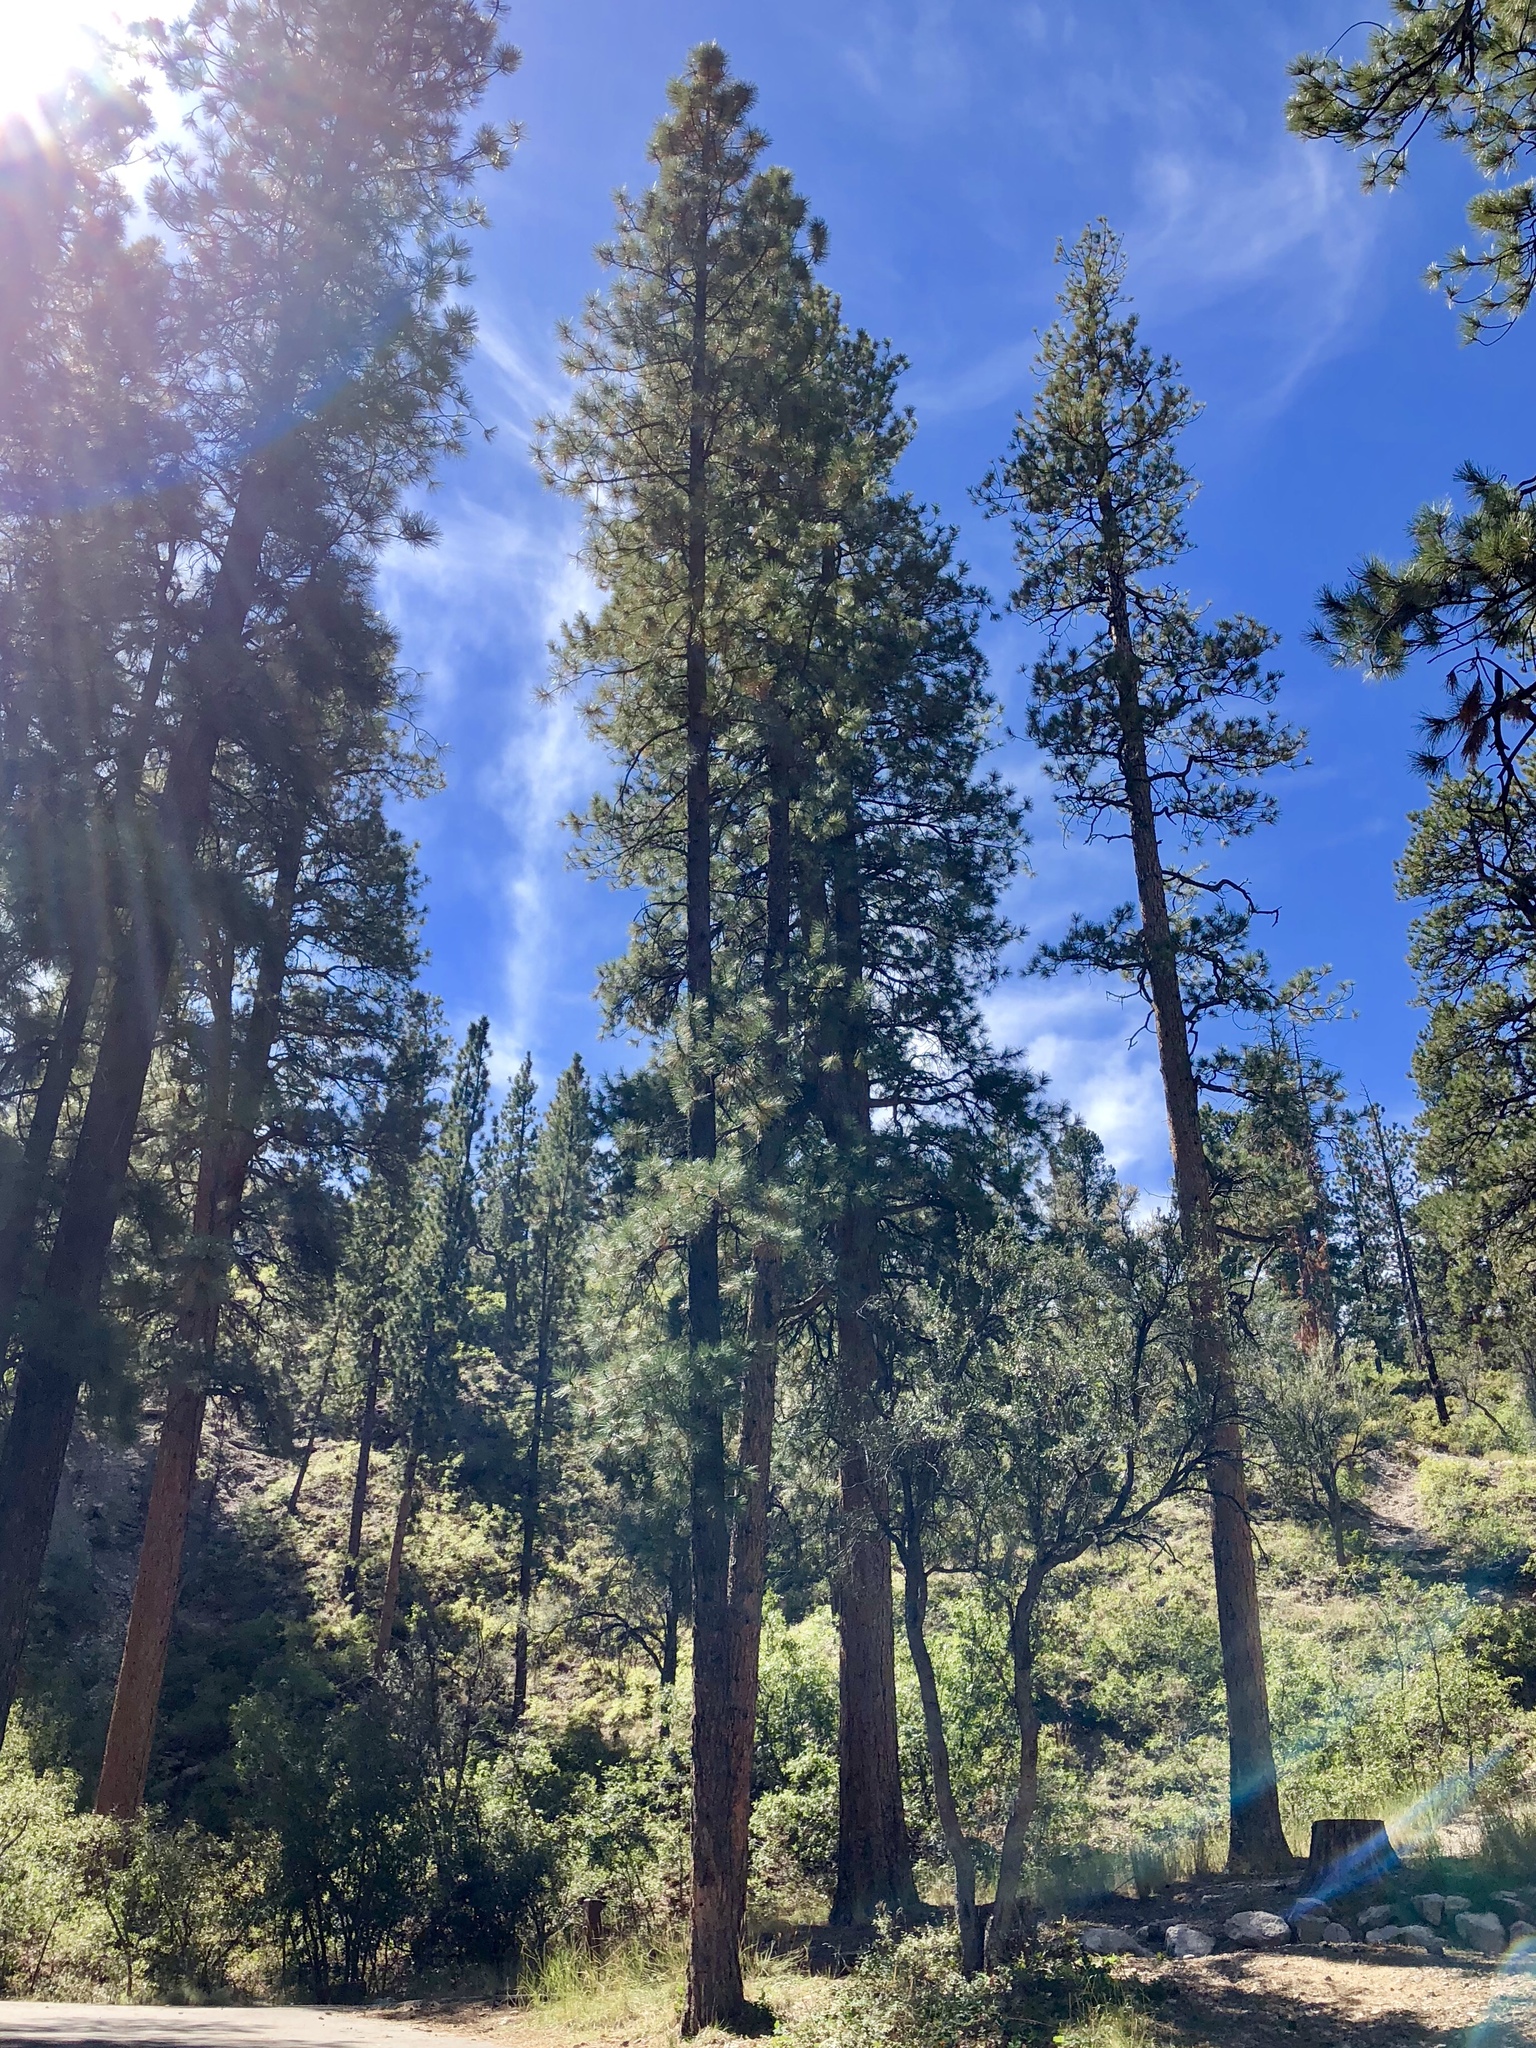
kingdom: Plantae
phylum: Tracheophyta
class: Pinopsida
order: Pinales
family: Pinaceae
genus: Pinus
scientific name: Pinus ponderosa
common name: Western yellow-pine
